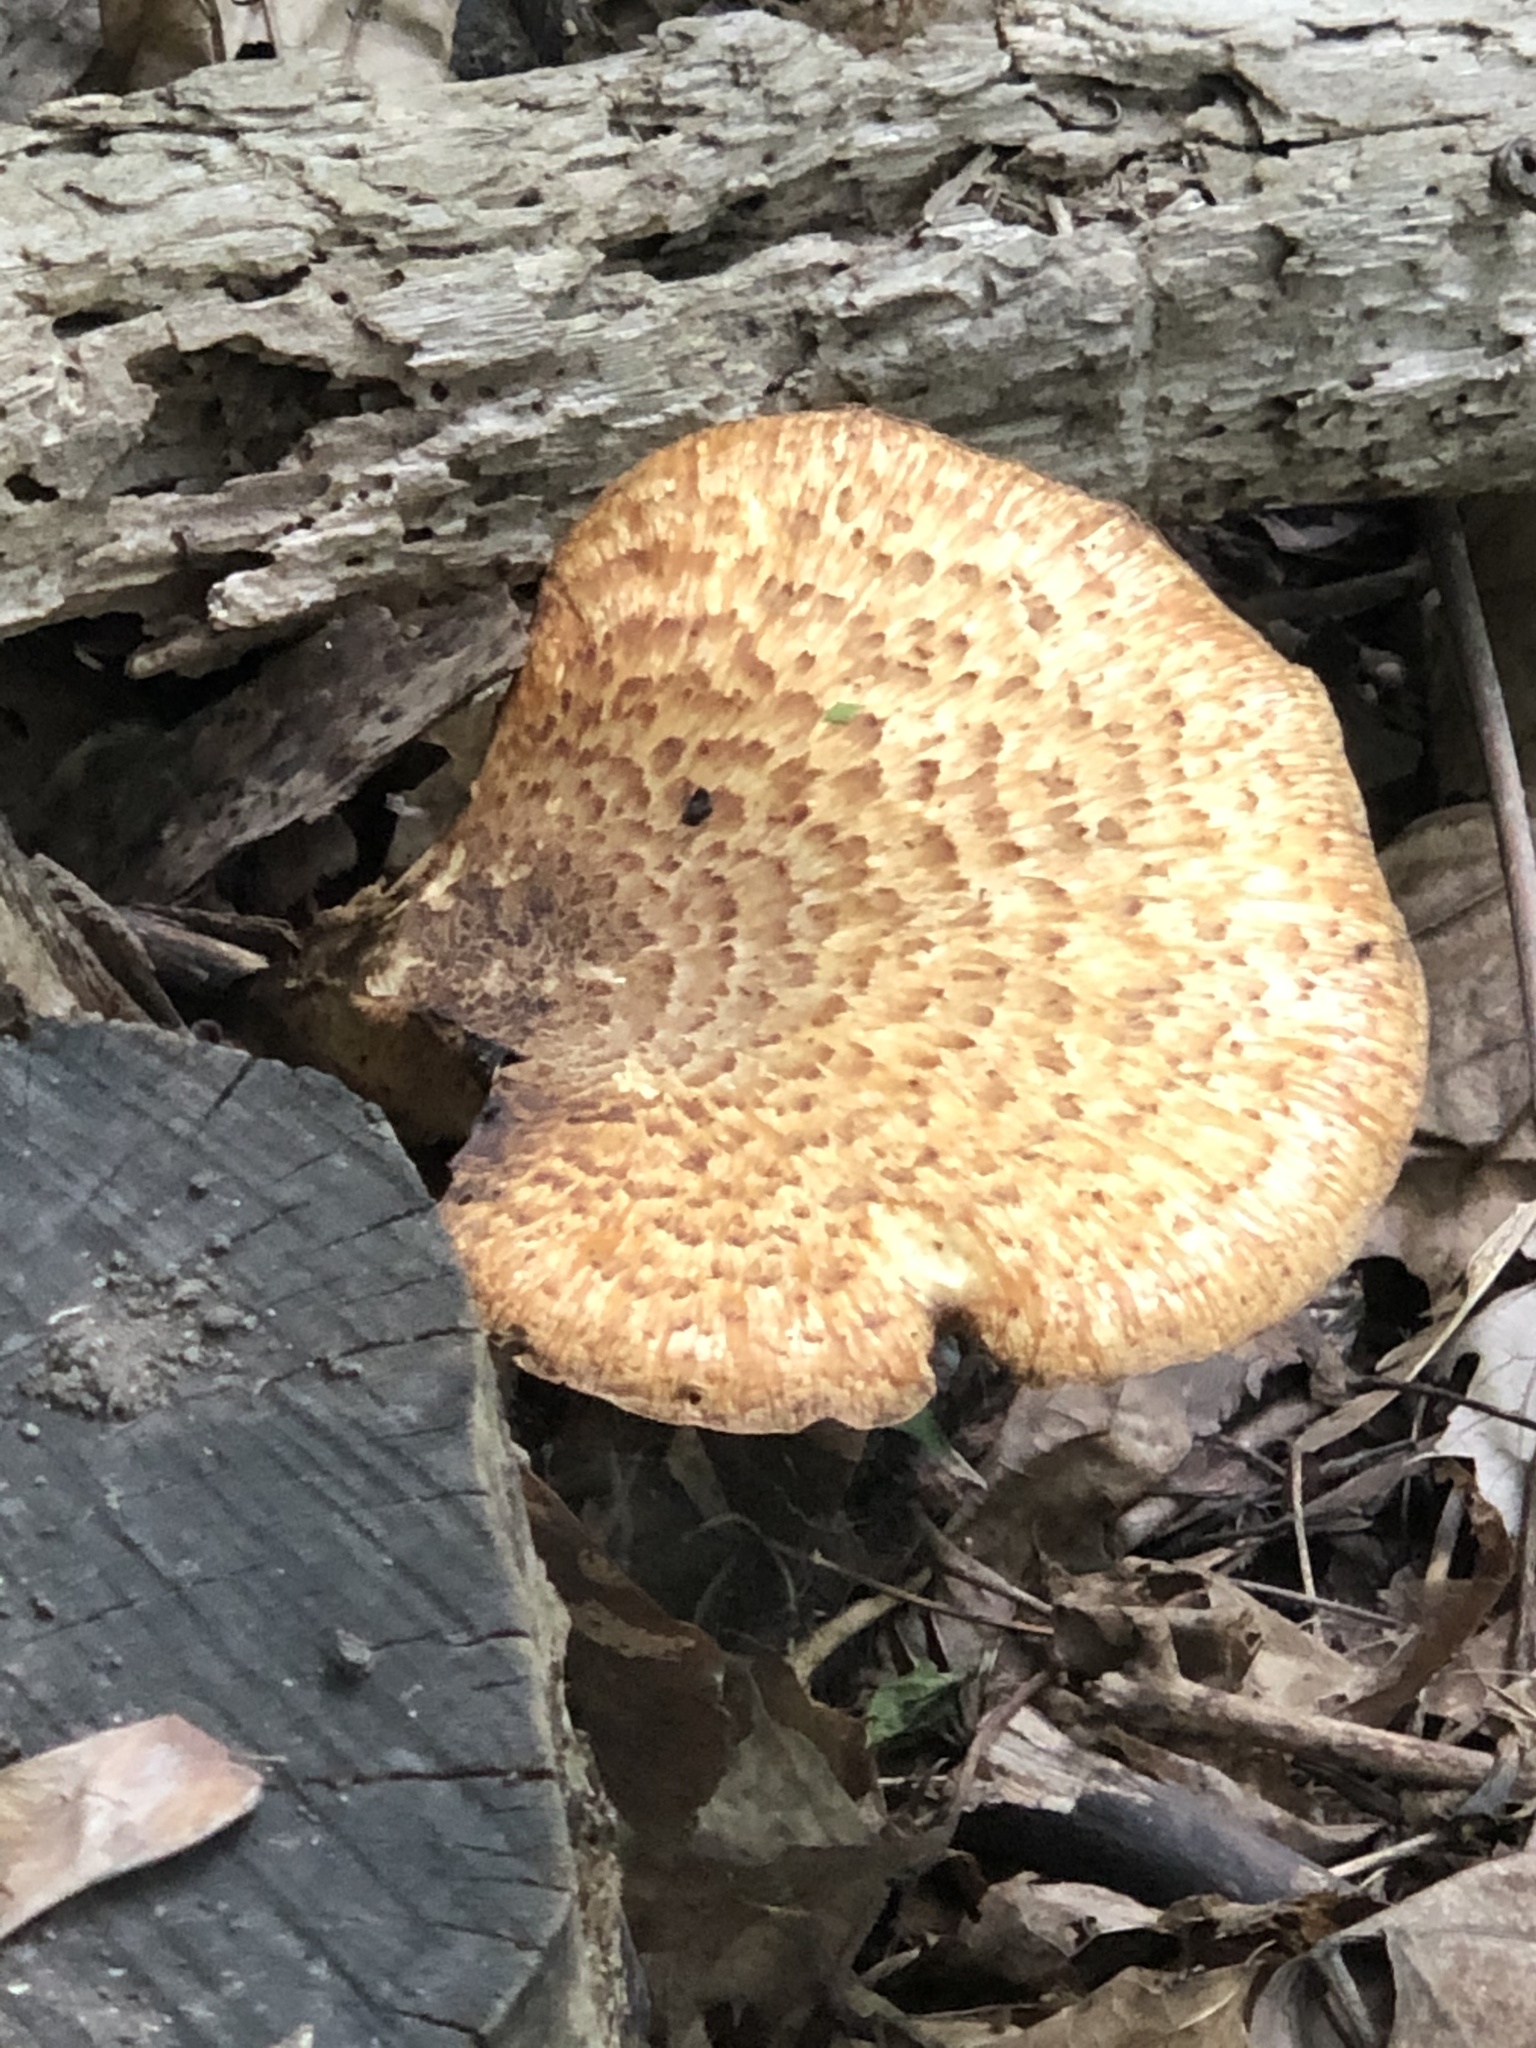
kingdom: Fungi
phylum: Basidiomycota
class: Agaricomycetes
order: Polyporales
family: Polyporaceae
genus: Cerioporus
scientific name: Cerioporus squamosus
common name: Dryad's saddle
